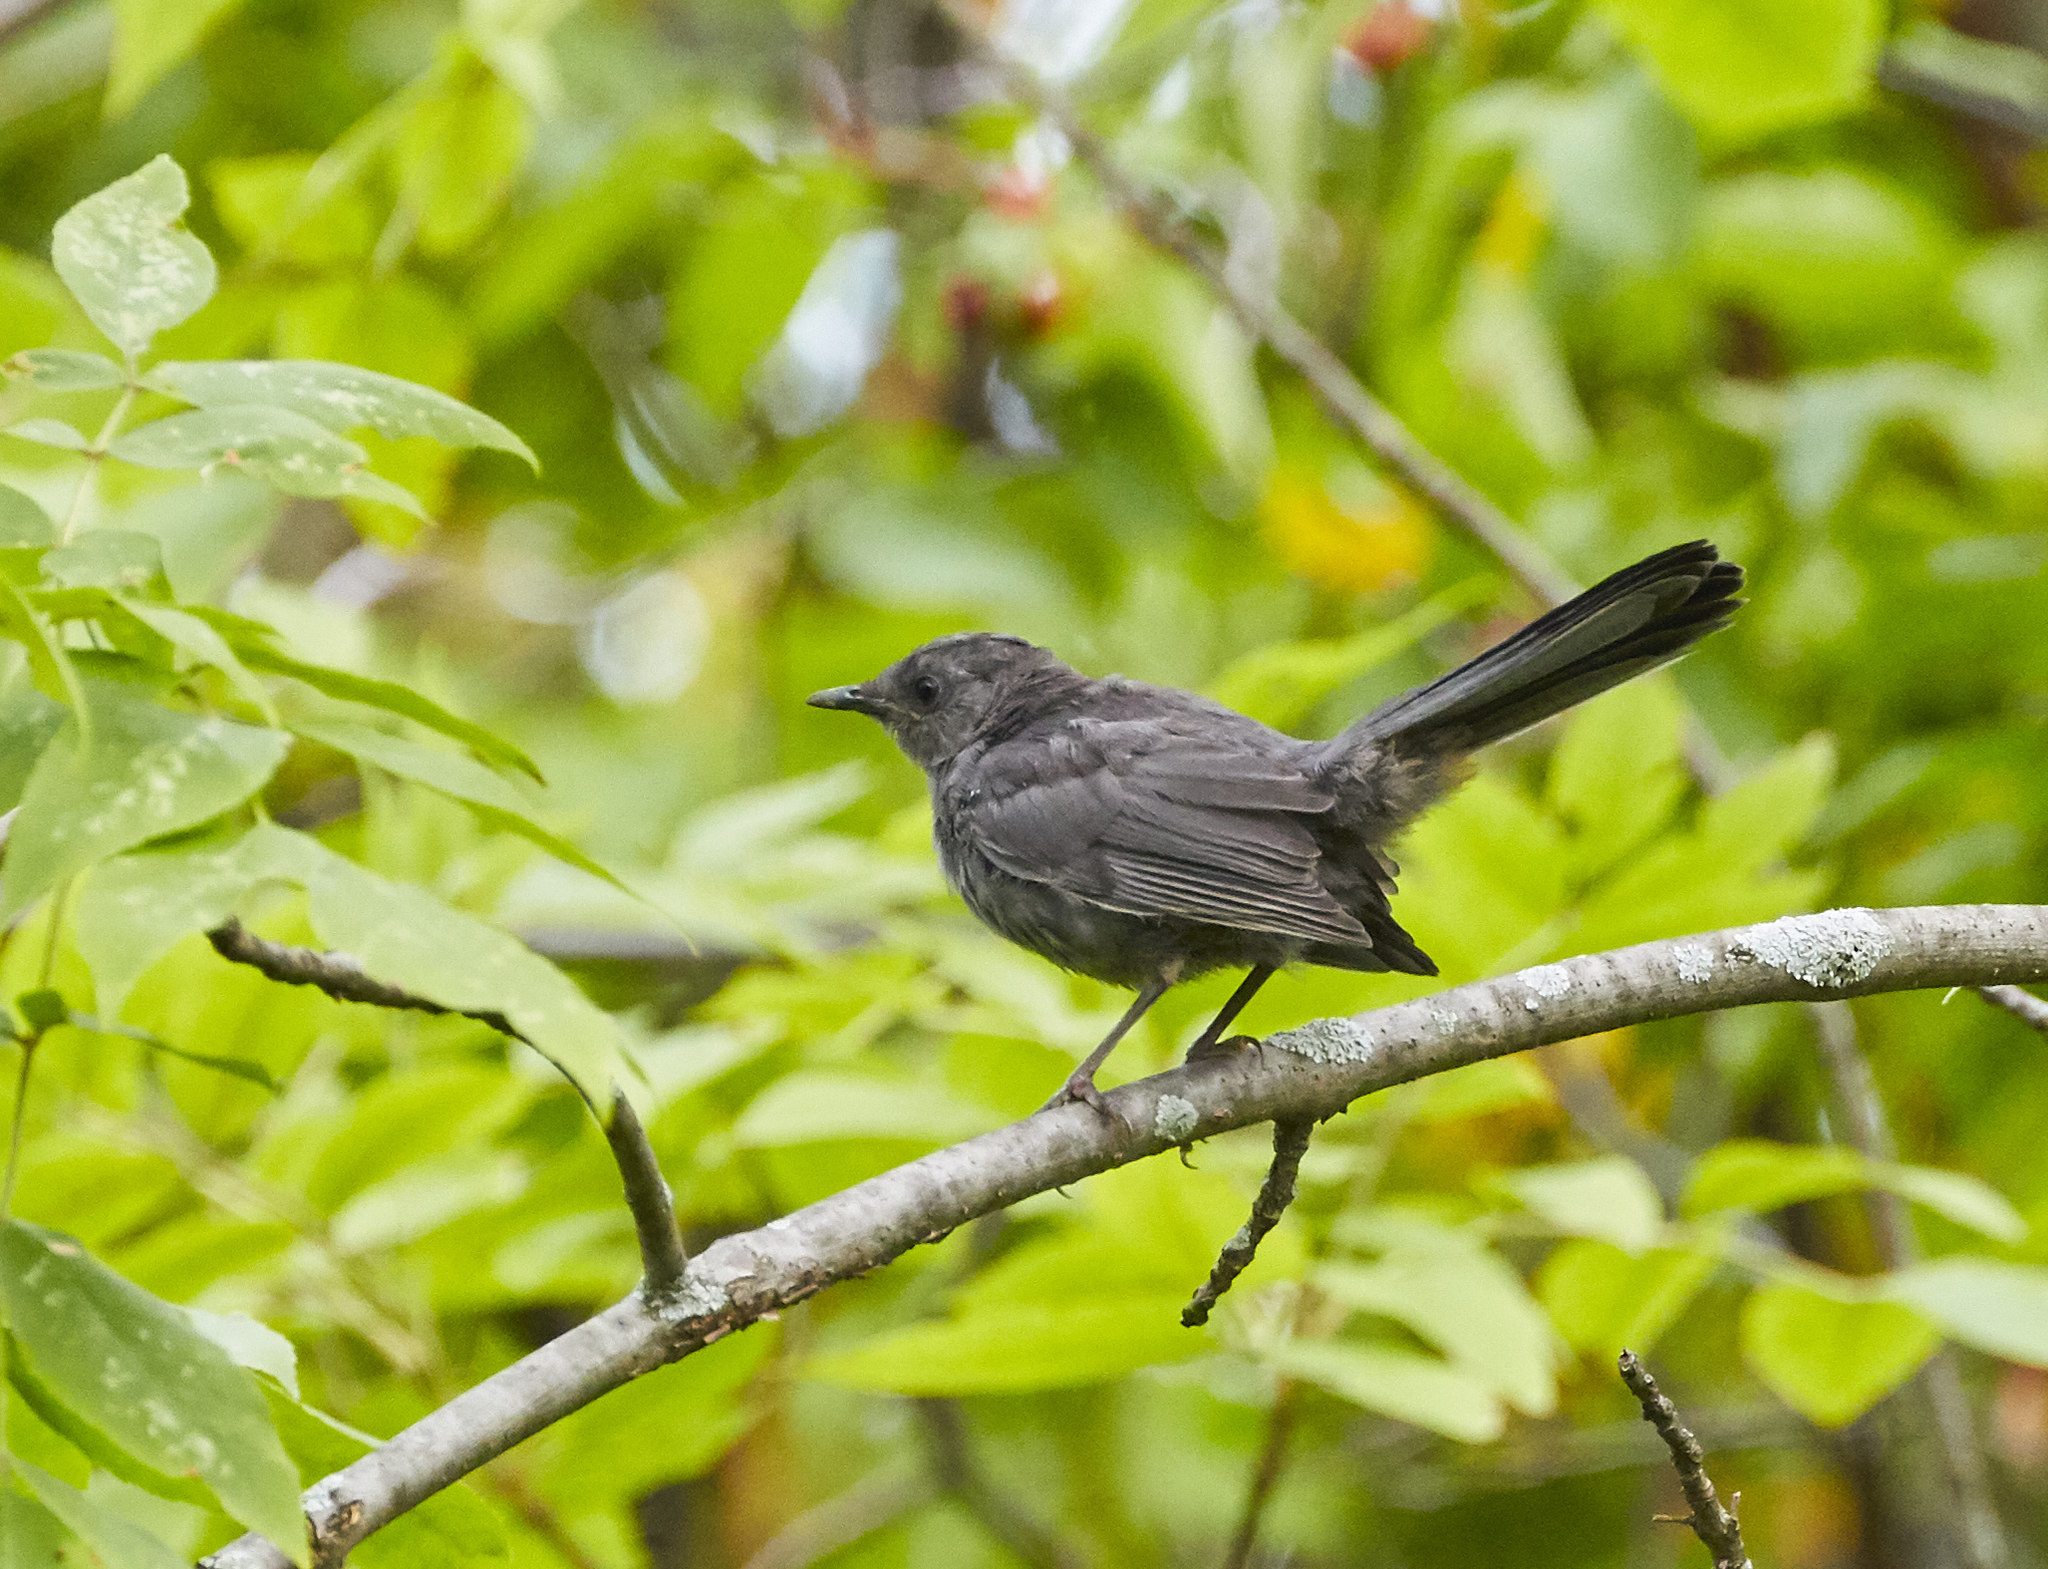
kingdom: Animalia
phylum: Chordata
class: Aves
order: Passeriformes
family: Mimidae
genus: Dumetella
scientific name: Dumetella carolinensis
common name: Gray catbird
